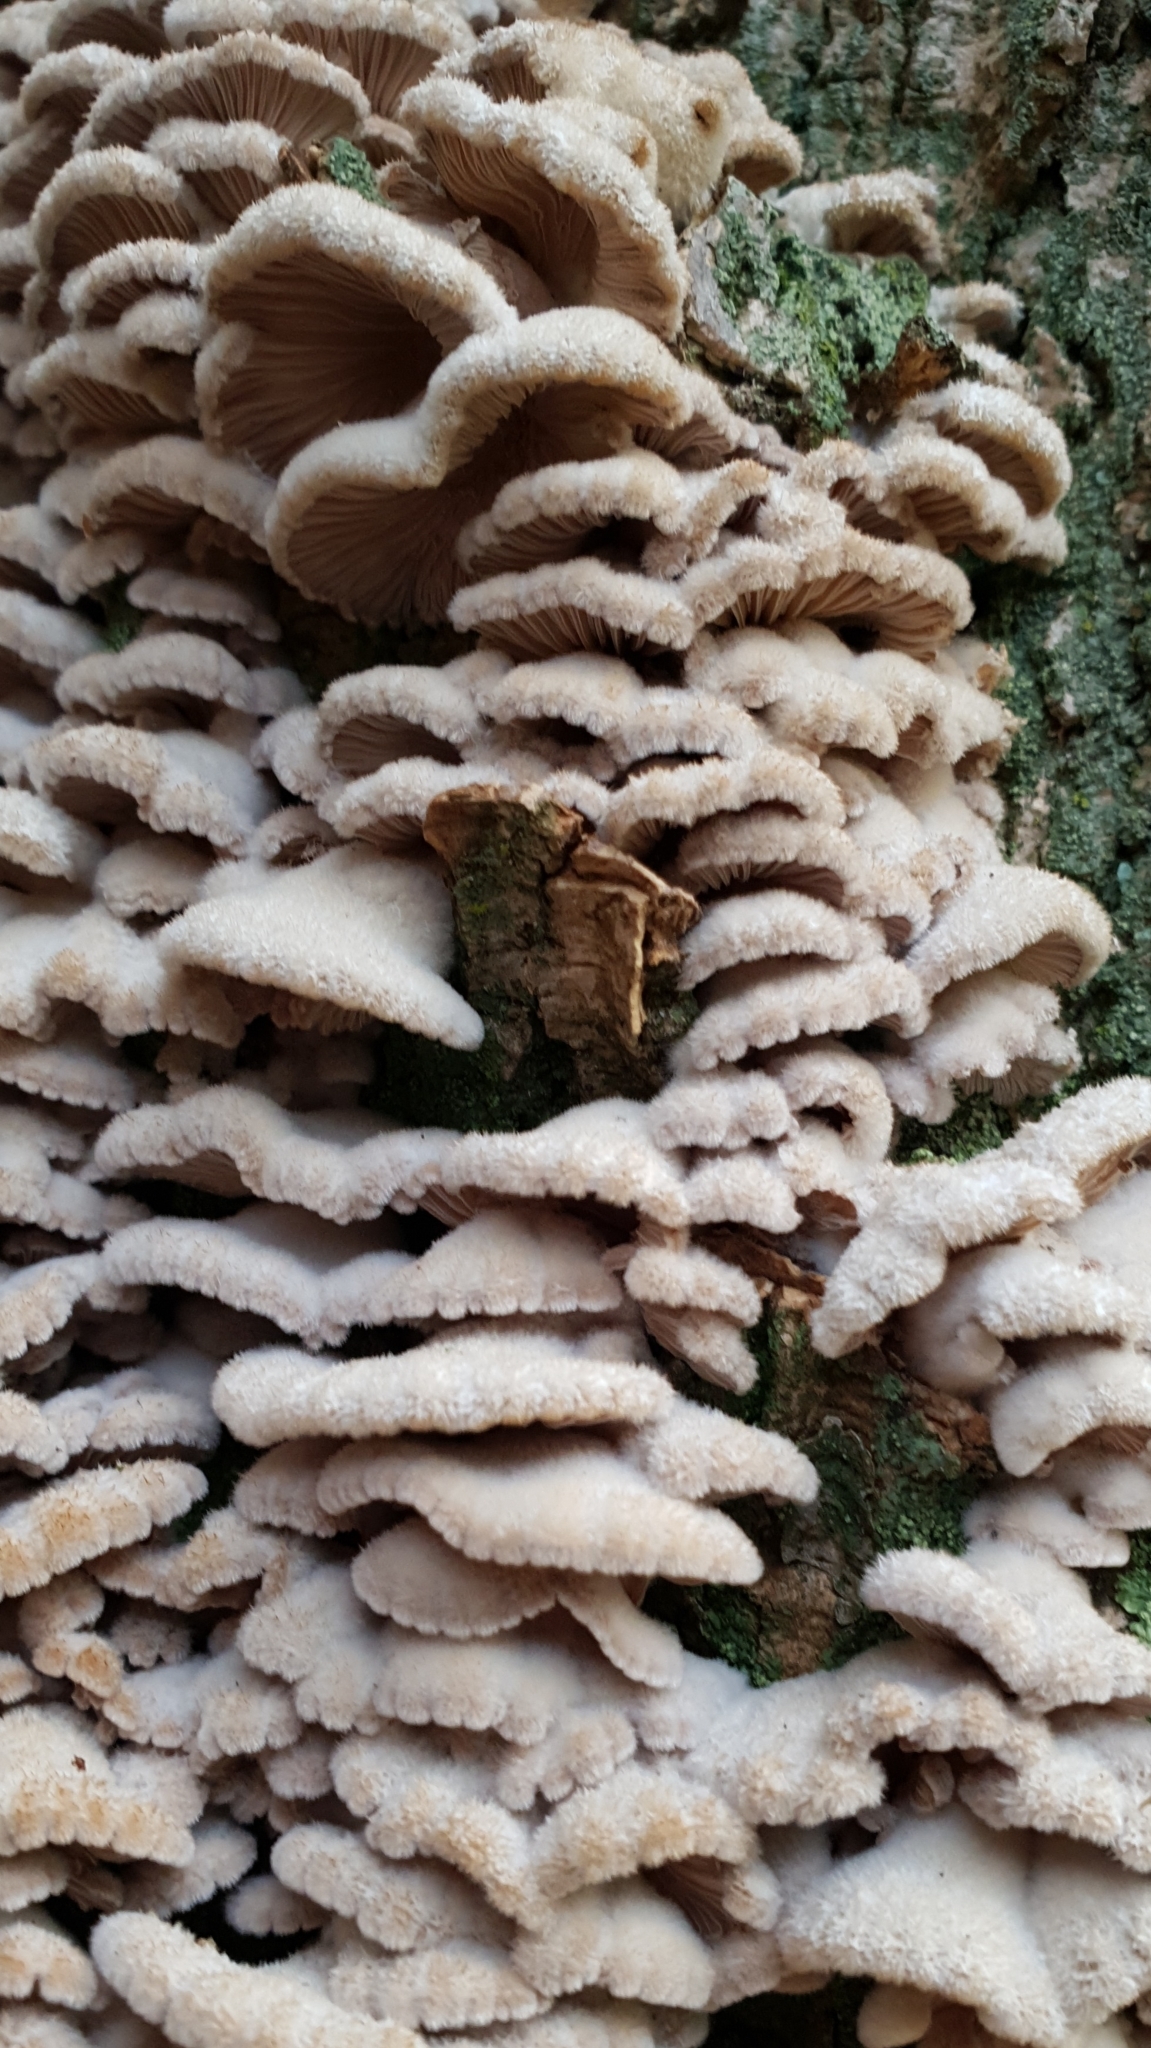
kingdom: Fungi
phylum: Basidiomycota
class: Agaricomycetes
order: Agaricales
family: Schizophyllaceae
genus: Schizophyllum
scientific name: Schizophyllum commune
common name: Common porecrust
